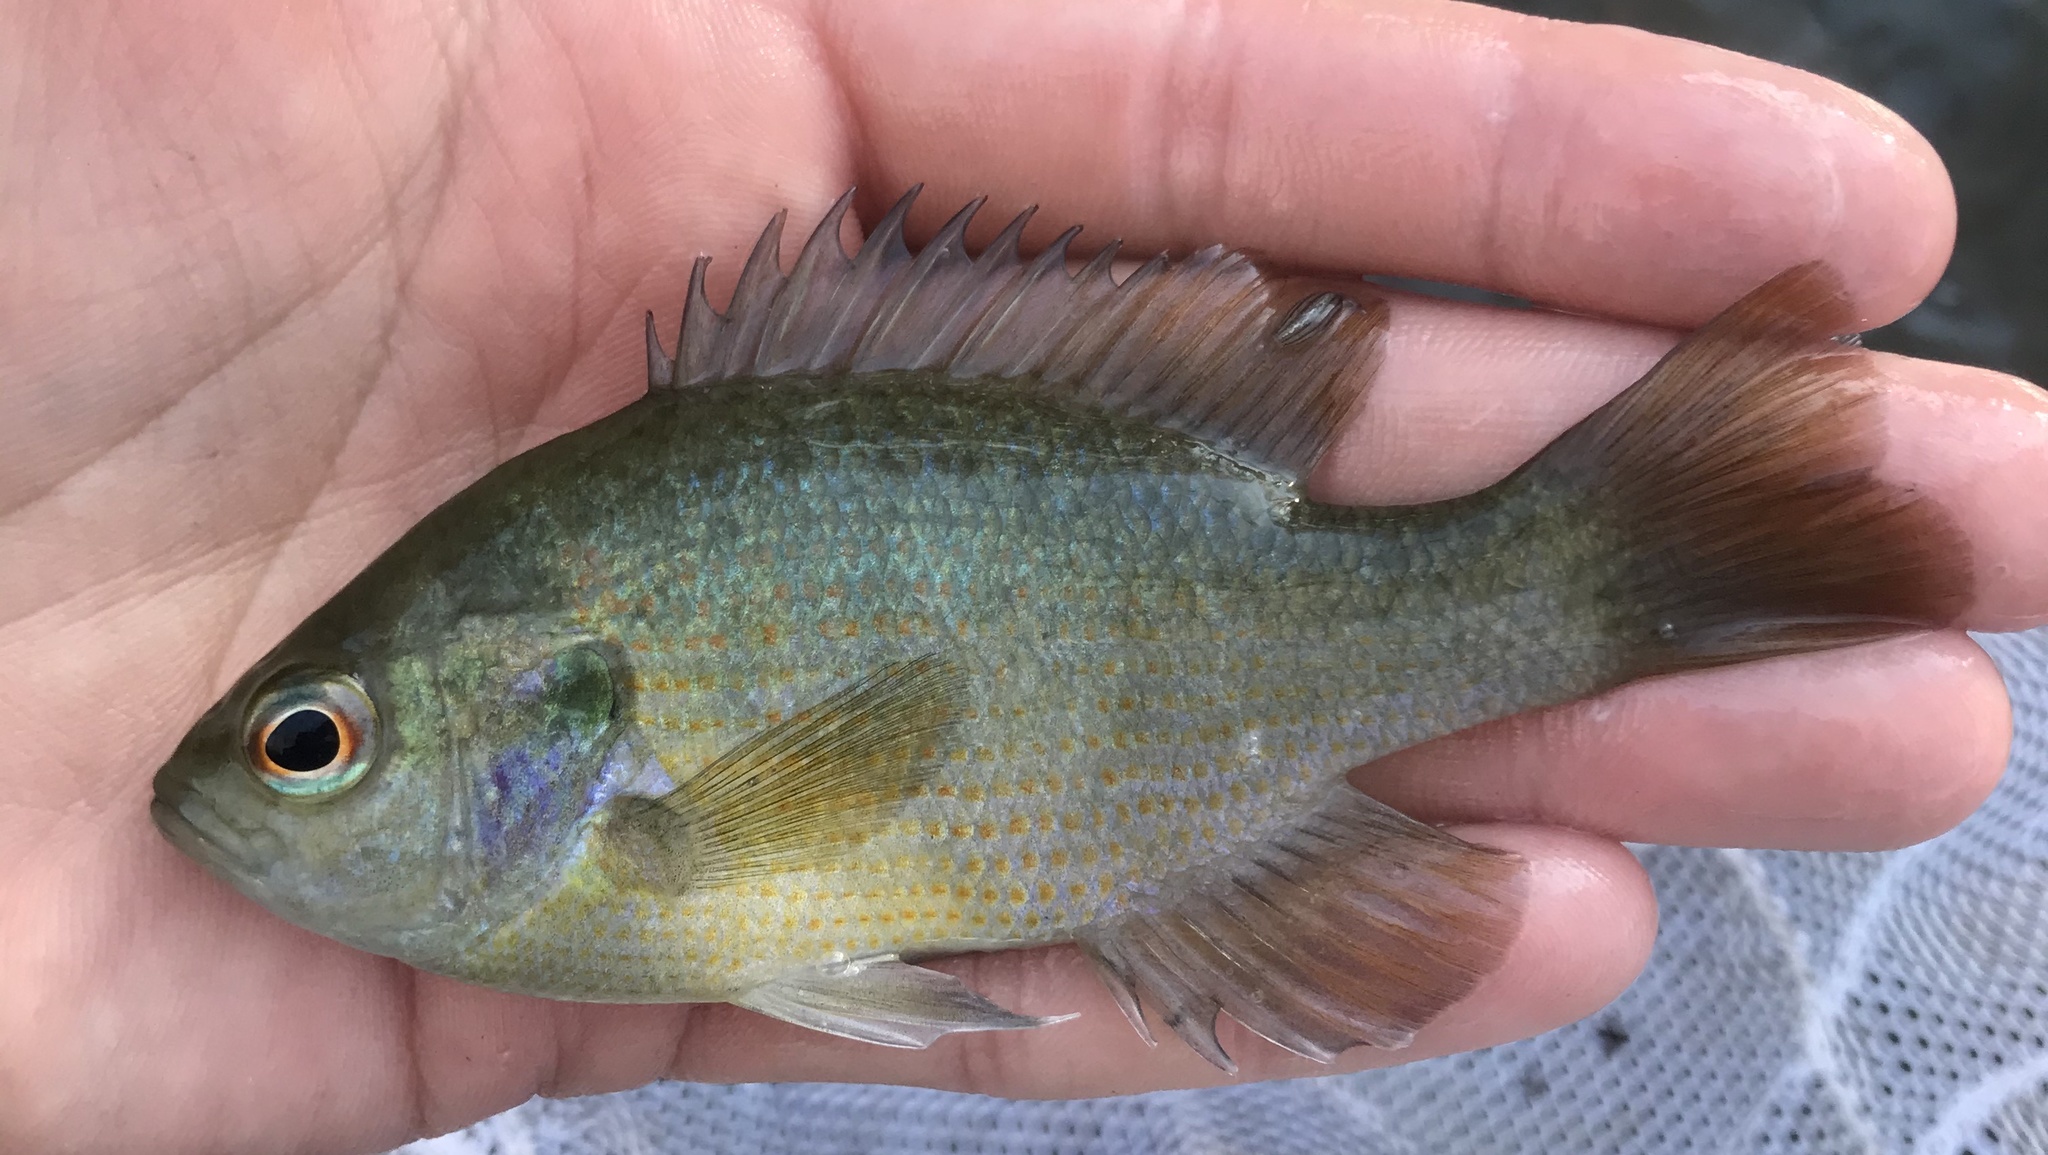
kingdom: Animalia
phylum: Chordata
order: Perciformes
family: Centrarchidae
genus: Lepomis
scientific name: Lepomis miniatus
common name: Redspotted sunfish
